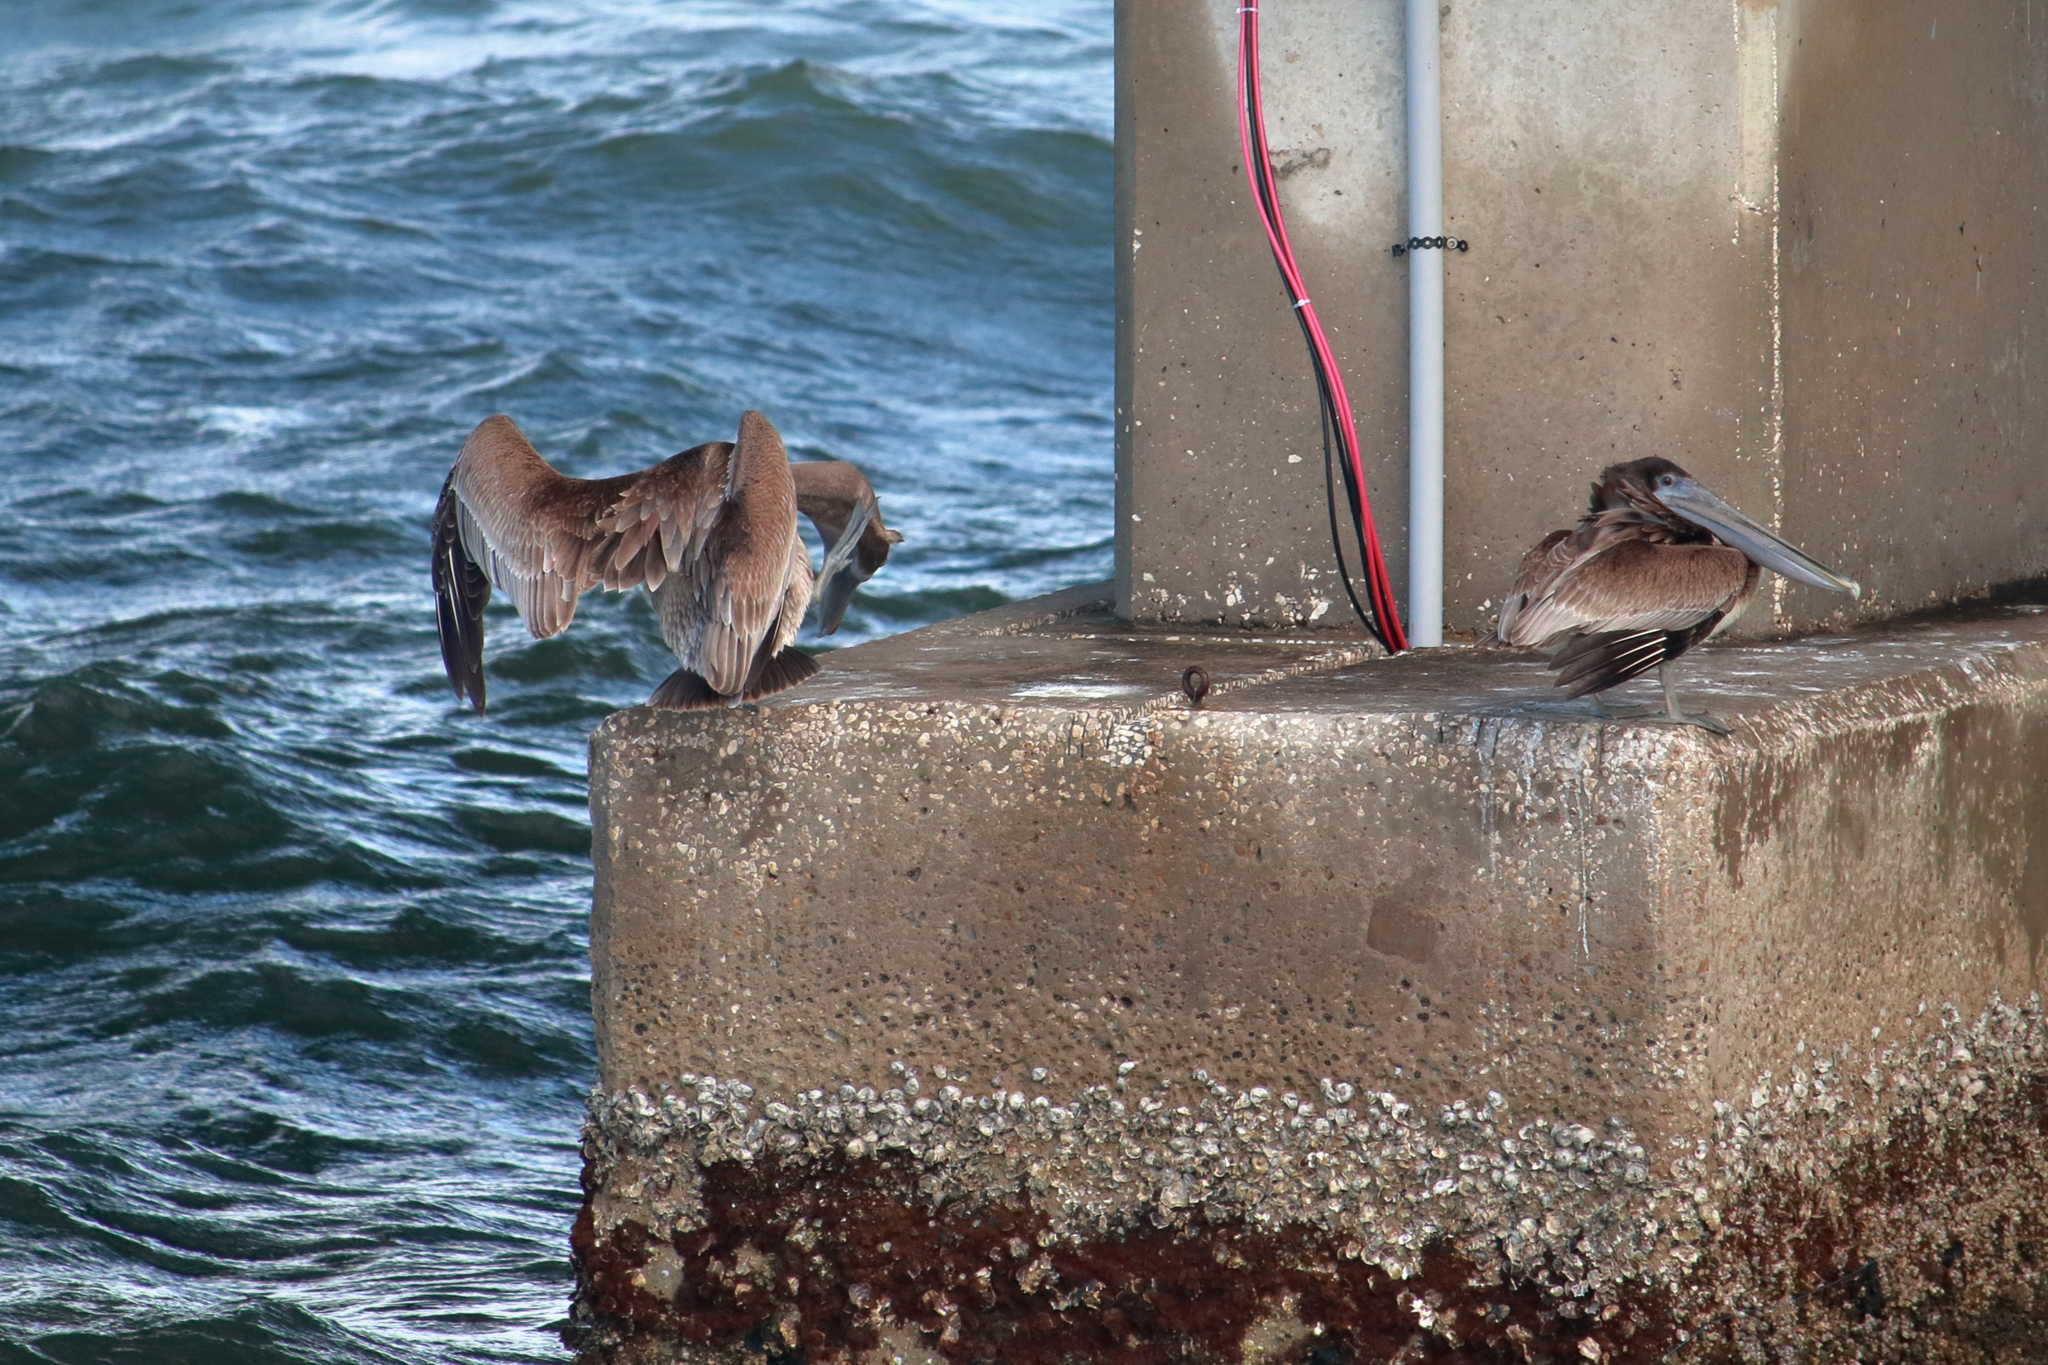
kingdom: Animalia
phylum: Chordata
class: Aves
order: Pelecaniformes
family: Pelecanidae
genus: Pelecanus
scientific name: Pelecanus occidentalis
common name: Brown pelican
